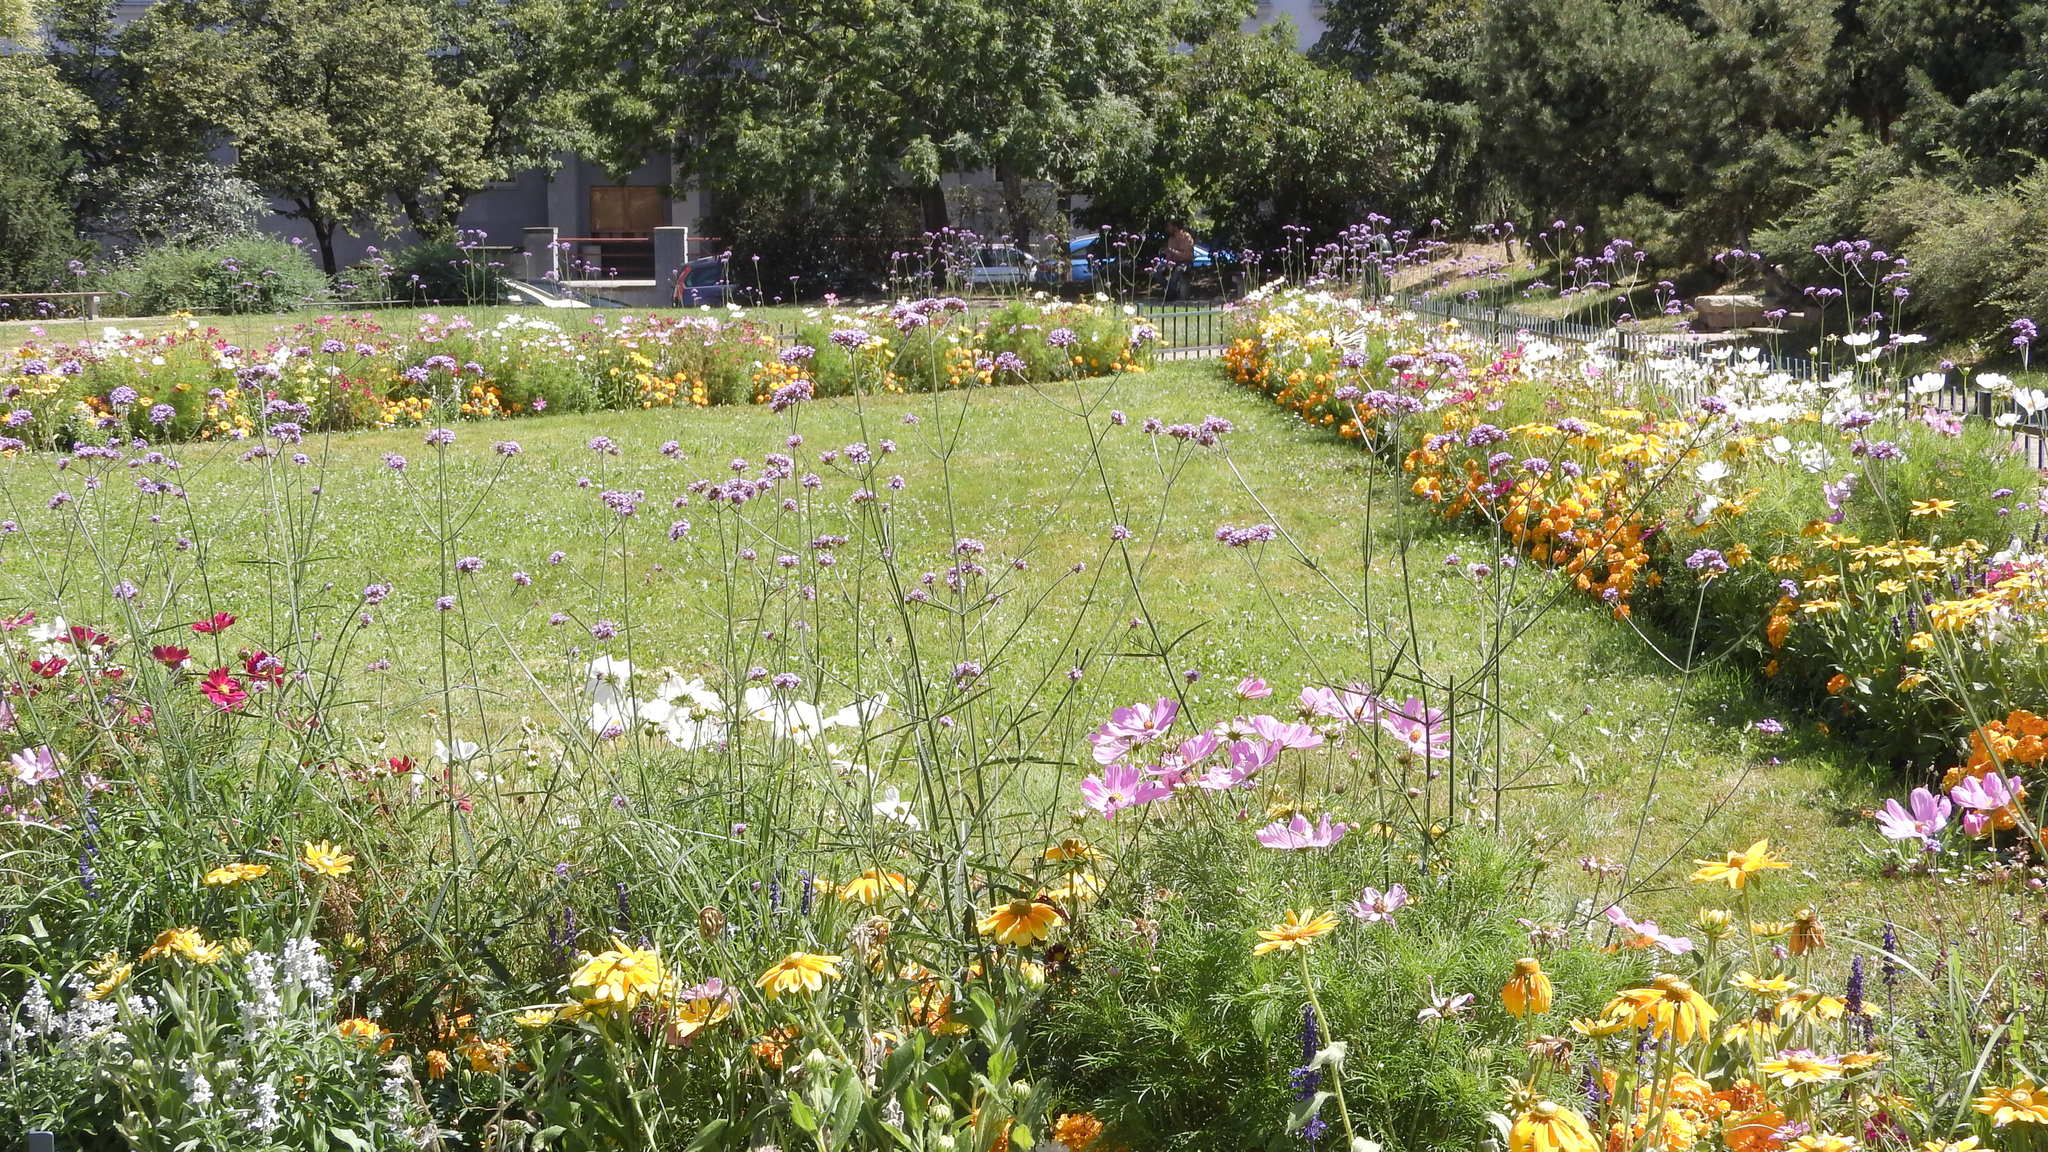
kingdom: Animalia
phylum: Arthropoda
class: Insecta
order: Lepidoptera
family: Papilionidae
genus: Iphiclides
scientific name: Iphiclides podalirius
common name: Scarce swallowtail
